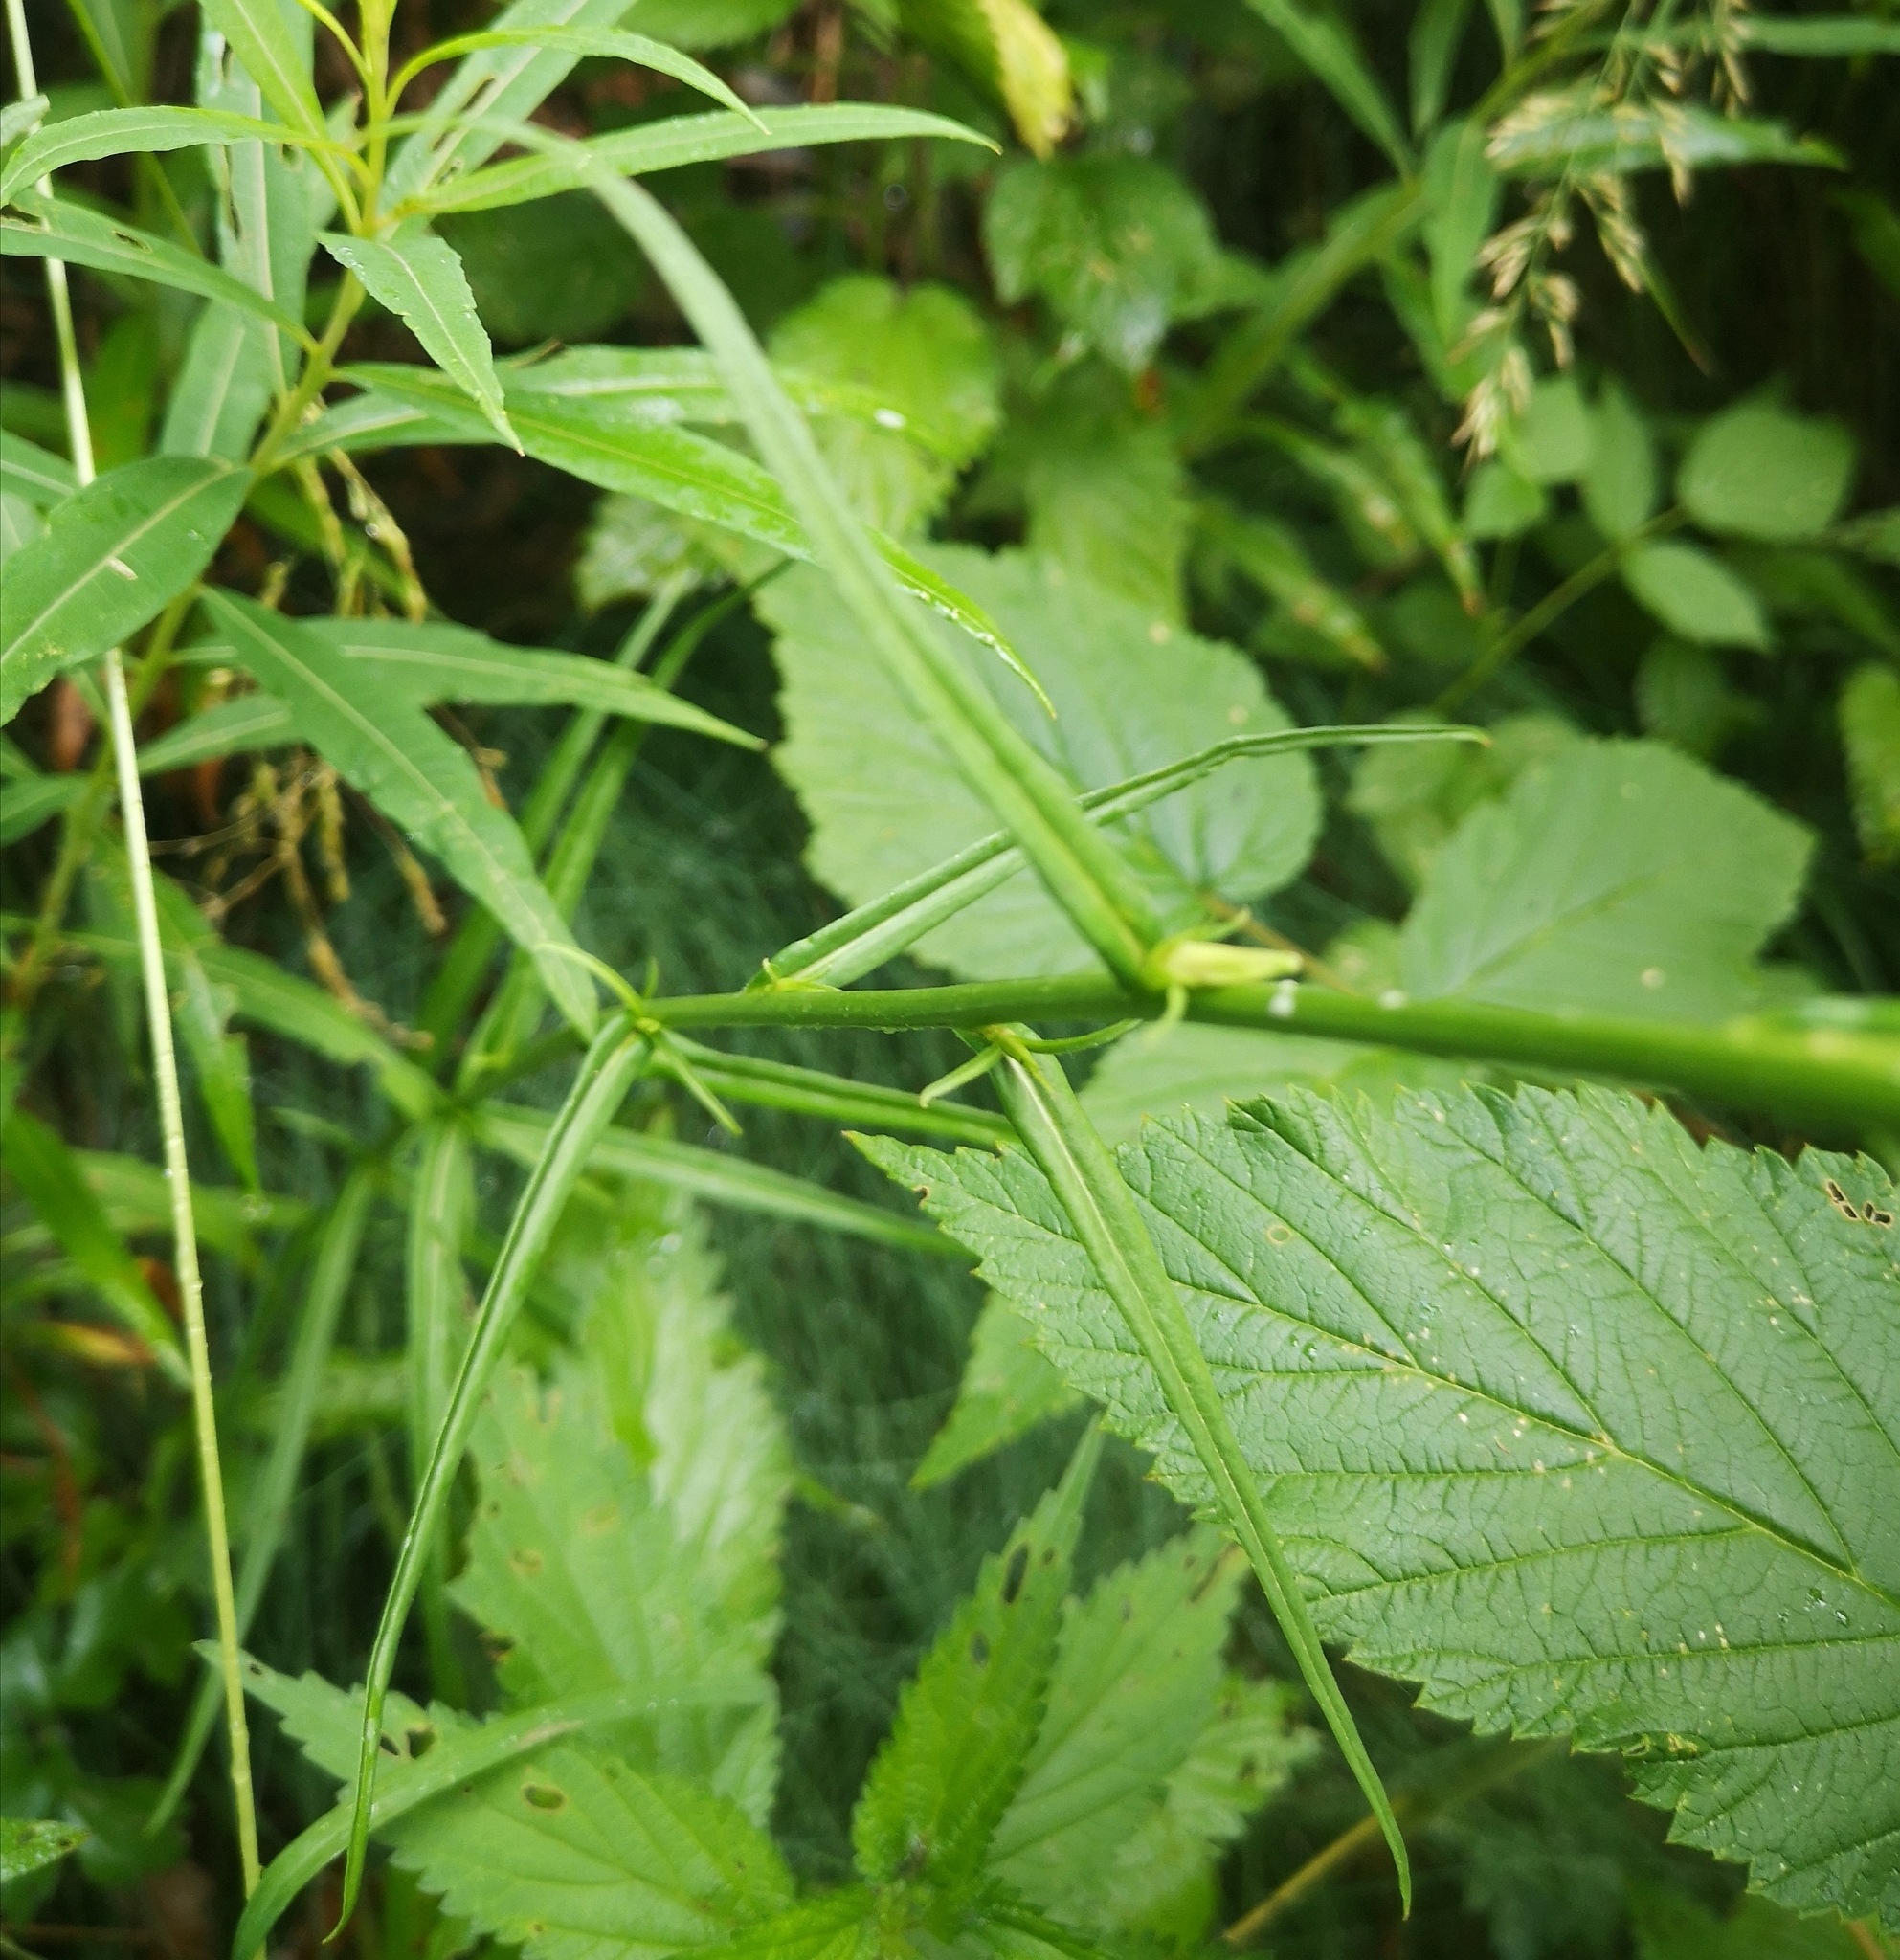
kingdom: Plantae
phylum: Tracheophyta
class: Magnoliopsida
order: Asterales
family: Campanulaceae
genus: Campanula
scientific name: Campanula persicifolia
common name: Peach-leaved bellflower
